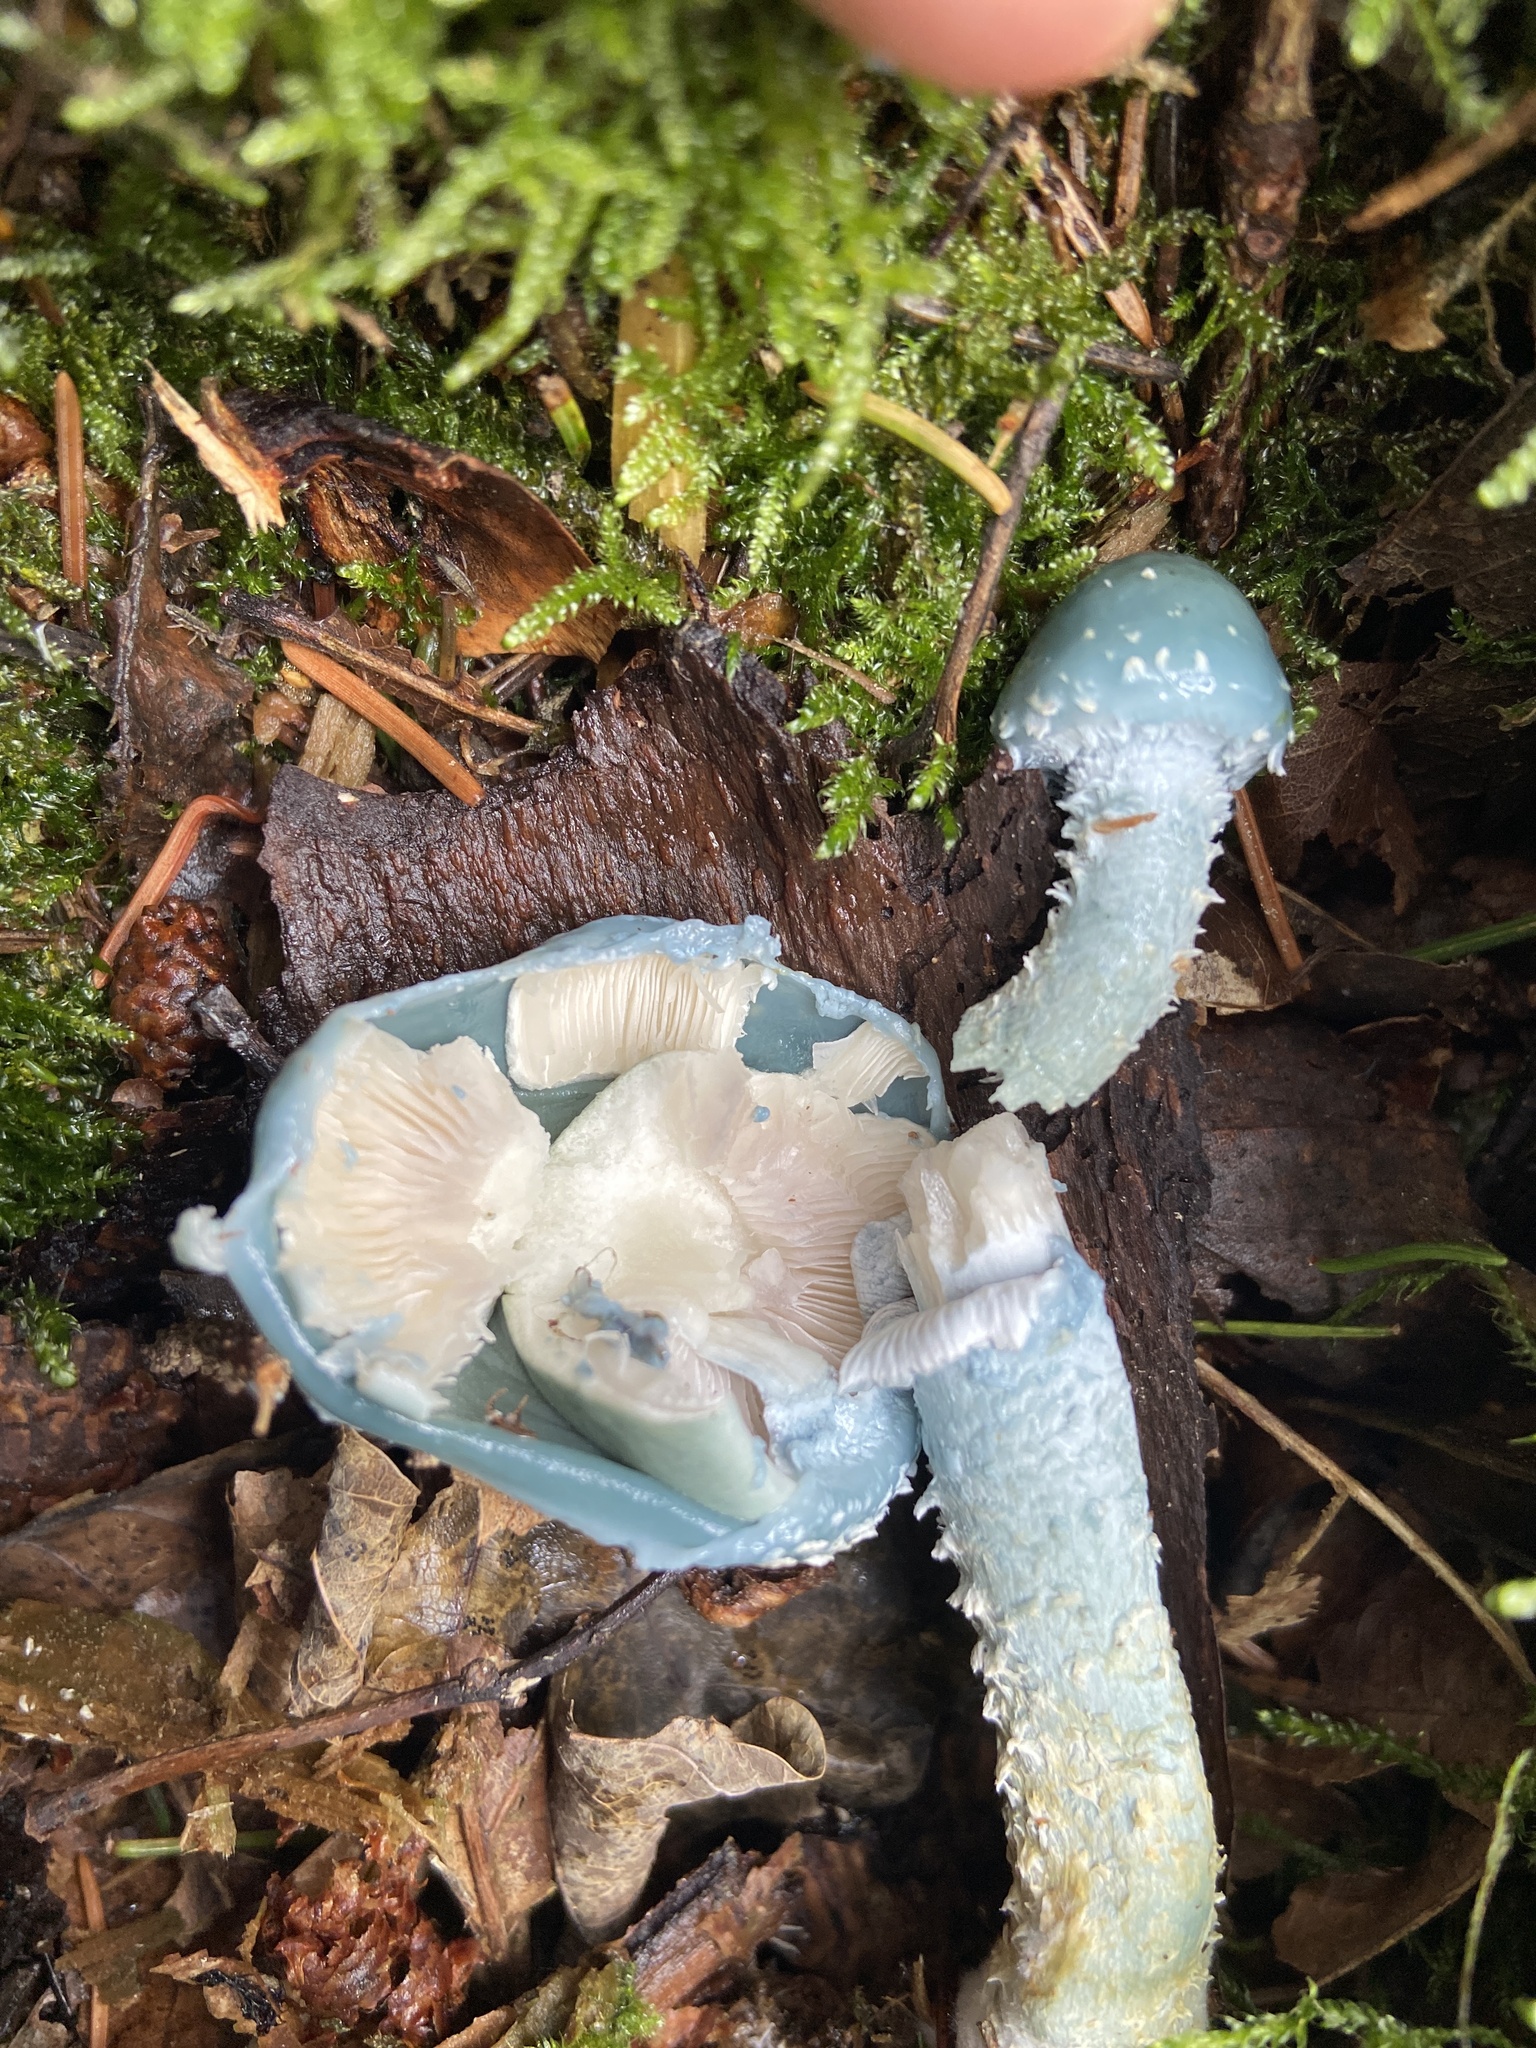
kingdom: Fungi
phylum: Basidiomycota
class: Agaricomycetes
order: Agaricales
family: Strophariaceae
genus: Stropharia
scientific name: Stropharia aeruginosa
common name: Verdigris roundhead
